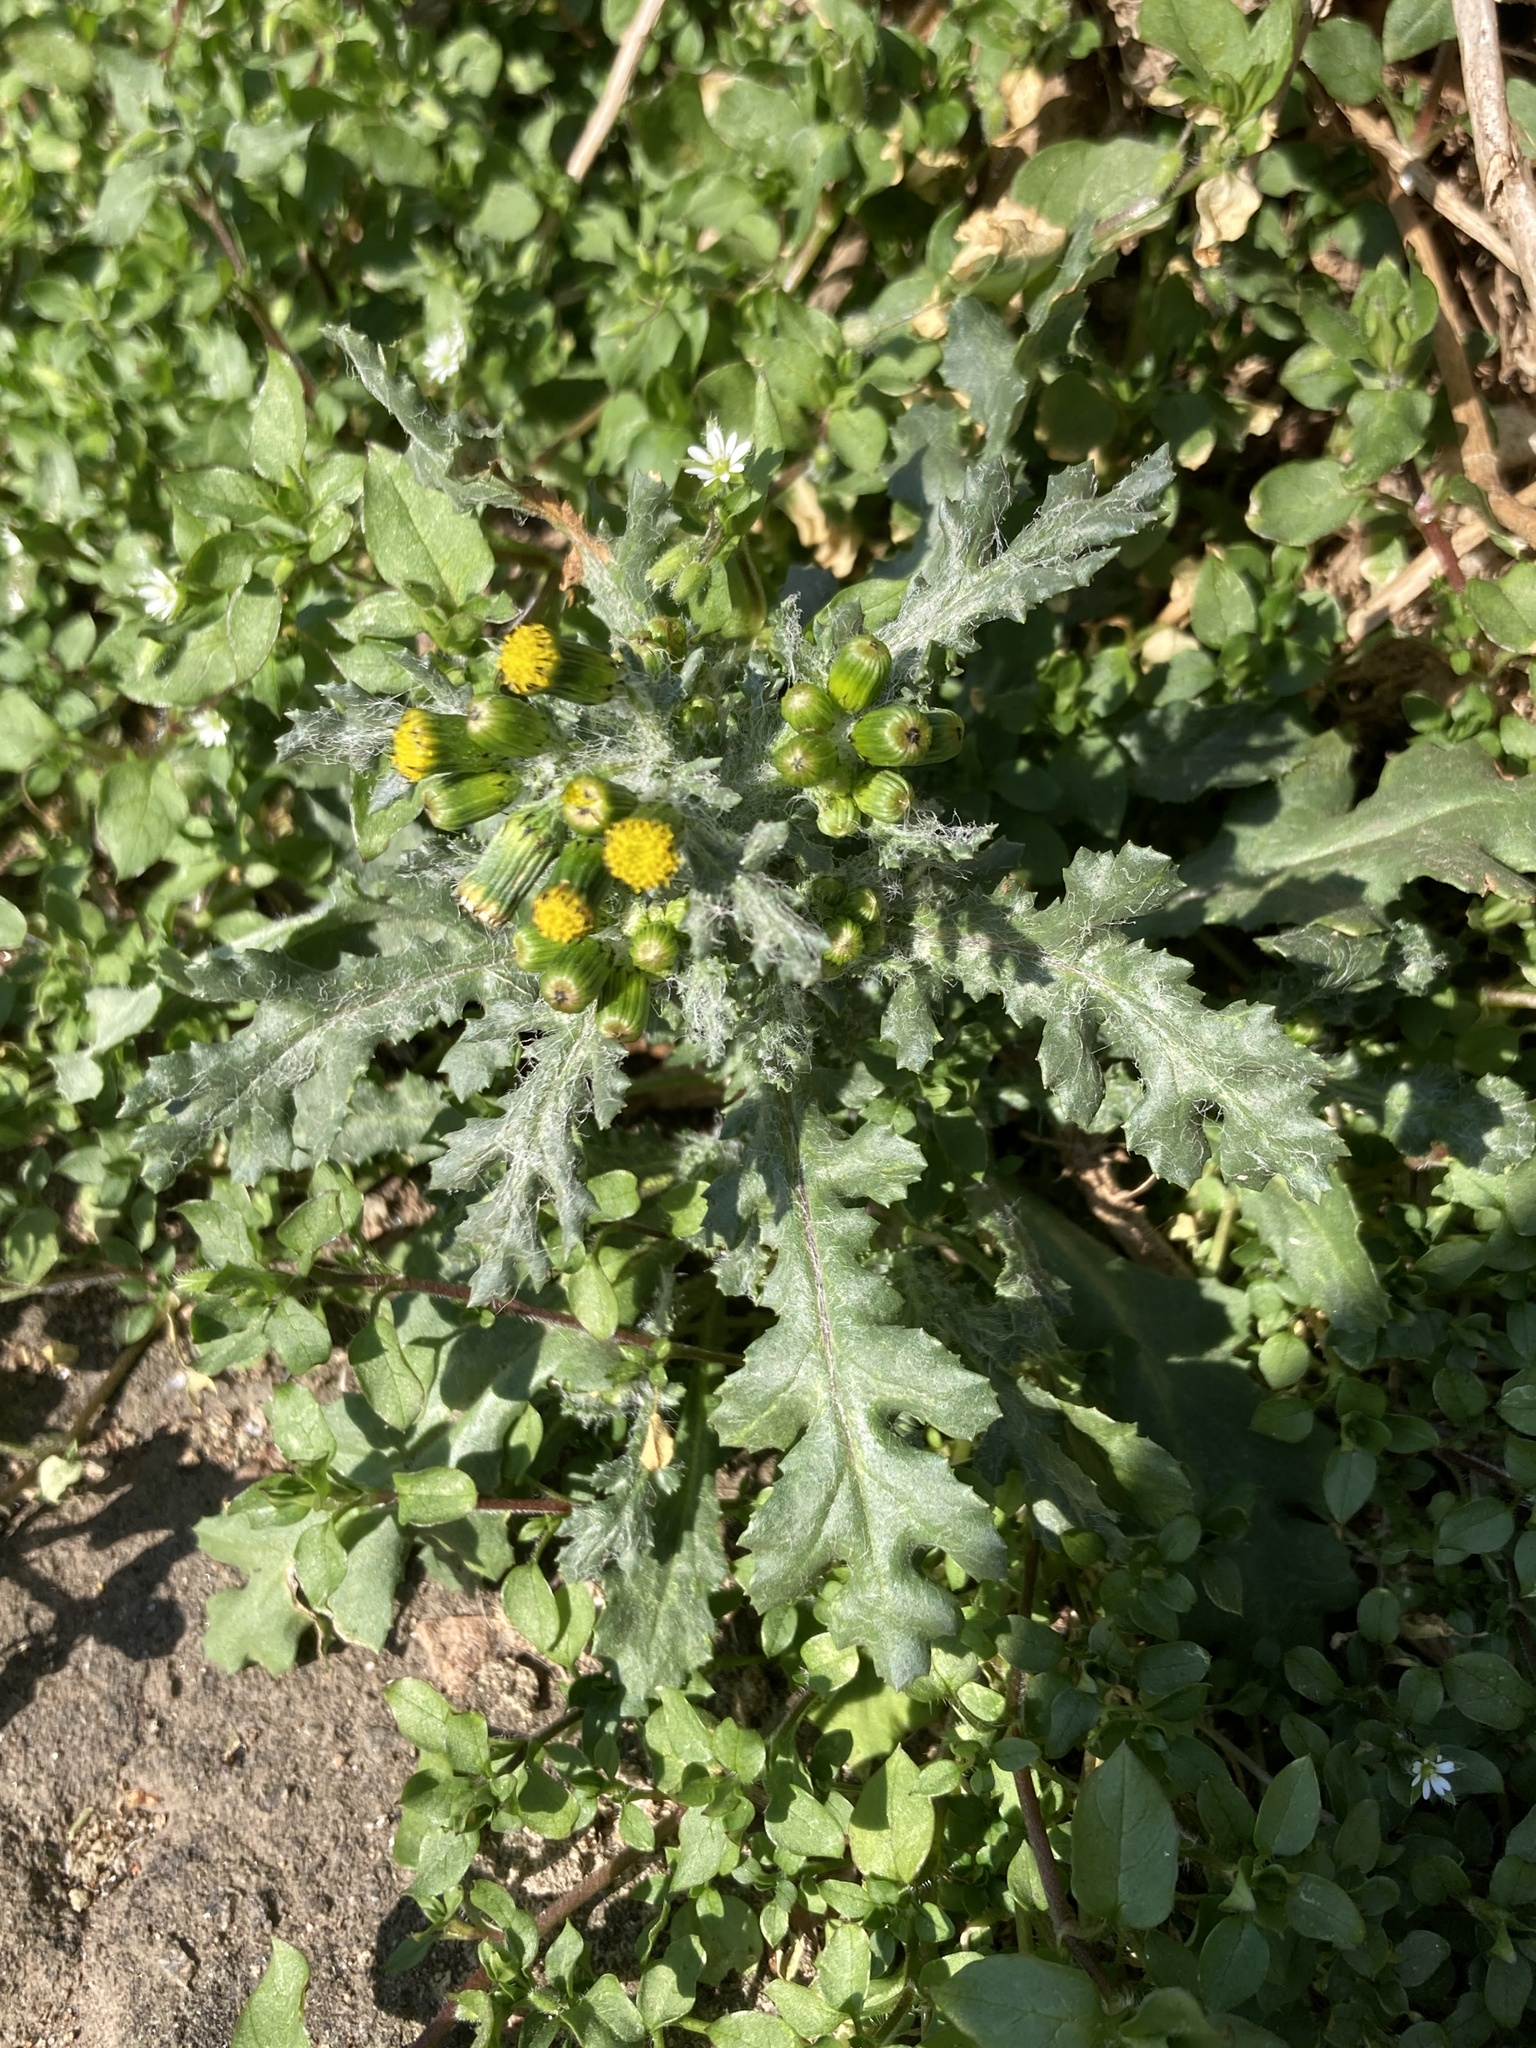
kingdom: Plantae
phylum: Tracheophyta
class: Magnoliopsida
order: Asterales
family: Asteraceae
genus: Senecio
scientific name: Senecio vulgaris
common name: Old-man-in-the-spring
